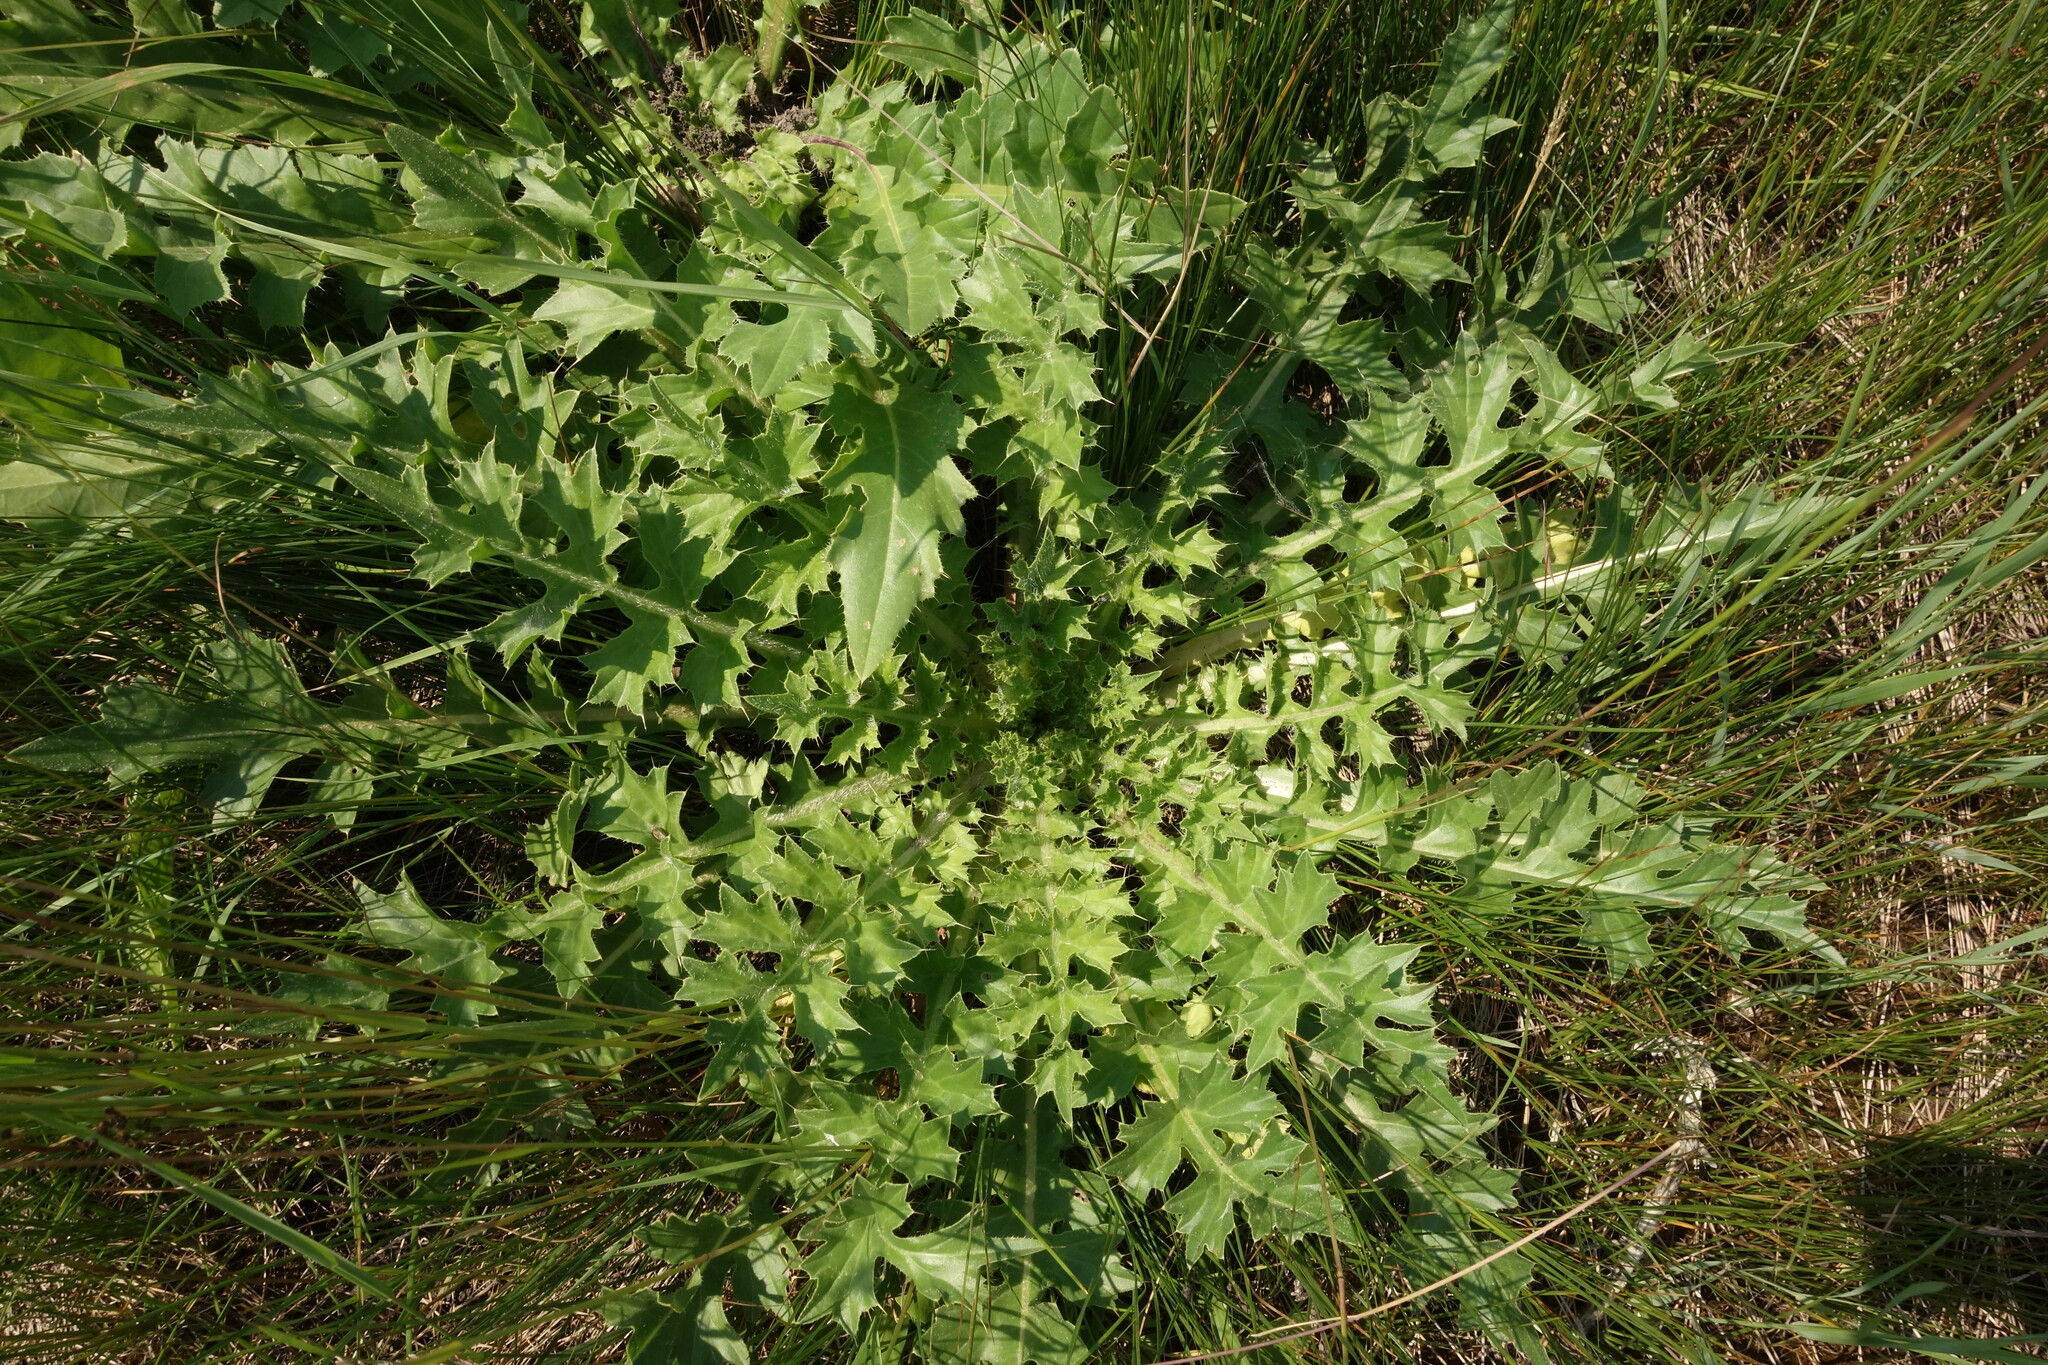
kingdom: Plantae
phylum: Tracheophyta
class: Magnoliopsida
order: Asterales
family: Asteraceae
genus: Cirsium
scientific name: Cirsium esculentum
